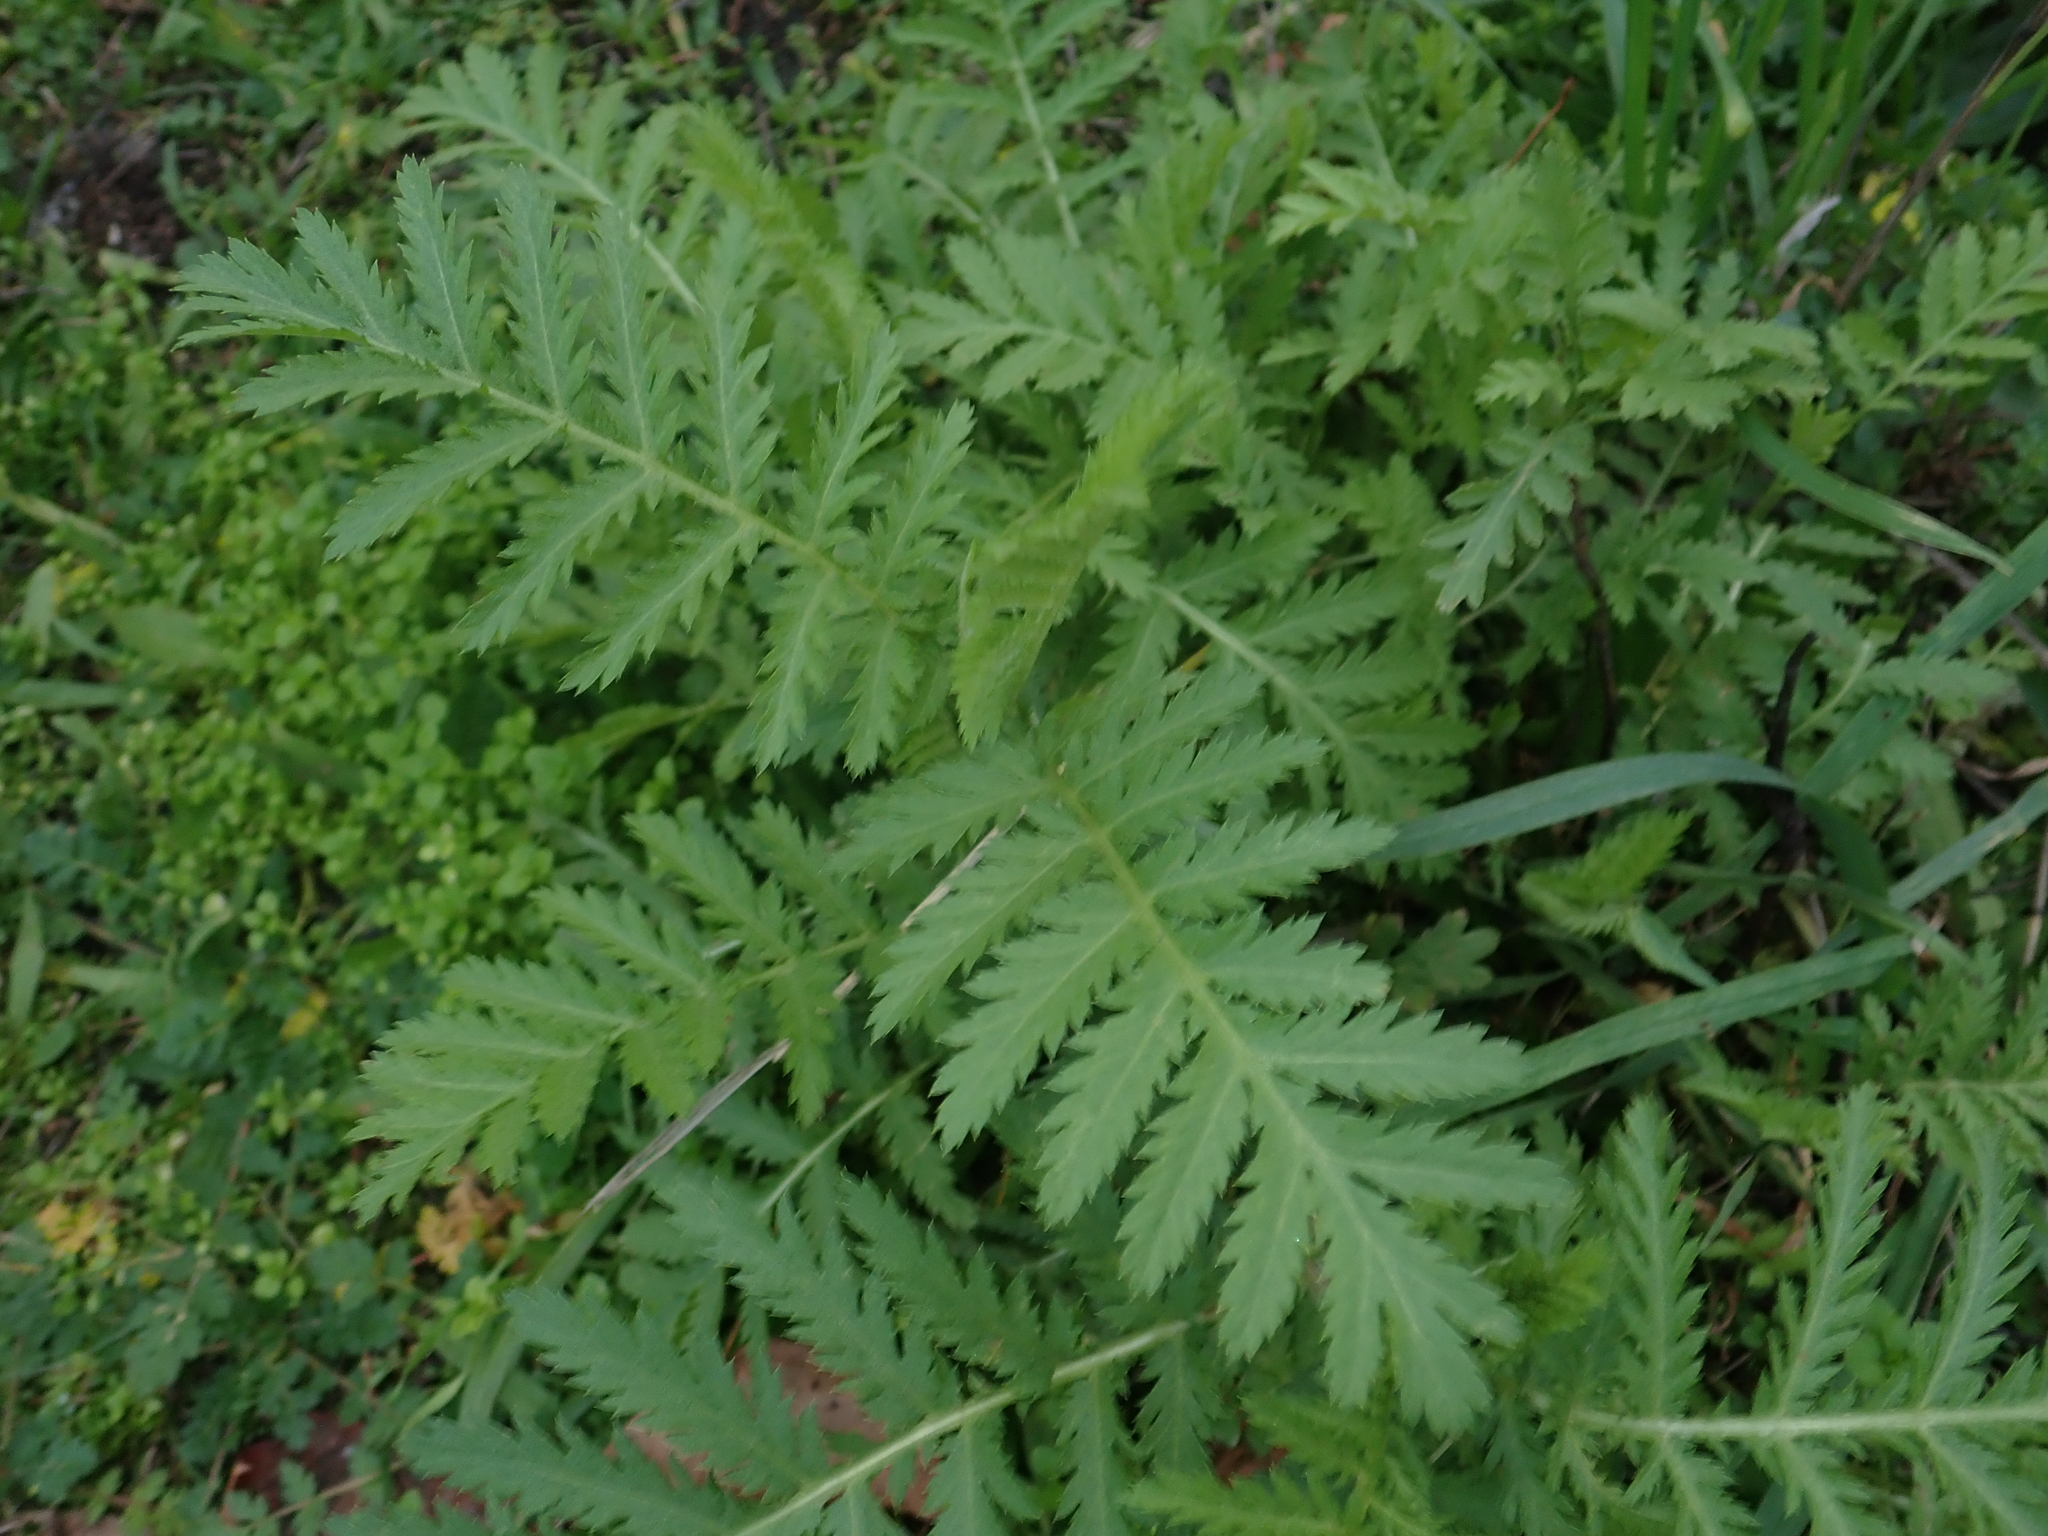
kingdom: Plantae
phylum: Tracheophyta
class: Magnoliopsida
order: Asterales
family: Asteraceae
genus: Tanacetum
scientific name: Tanacetum vulgare
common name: Common tansy
